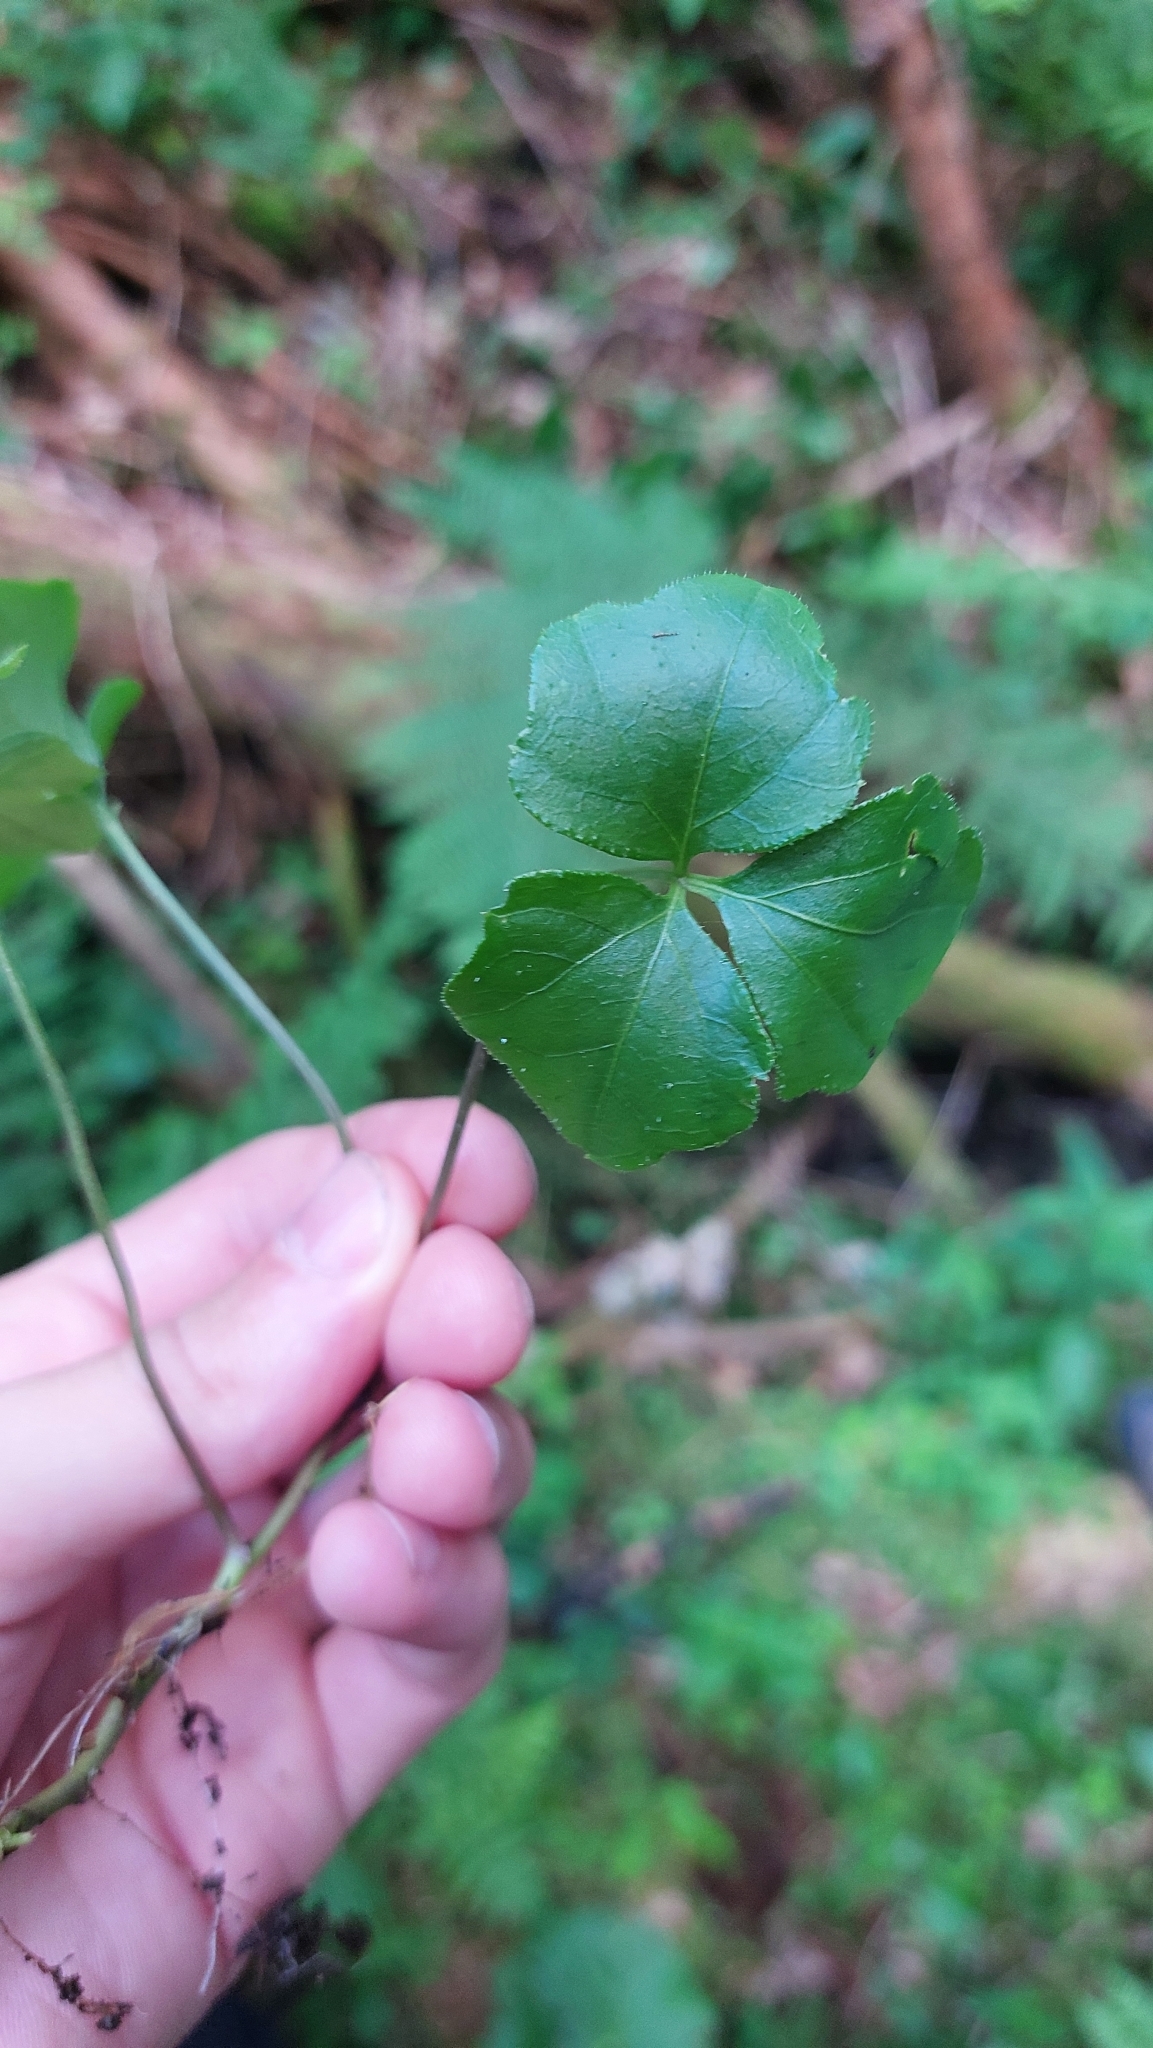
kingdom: Plantae
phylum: Tracheophyta
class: Magnoliopsida
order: Brassicales
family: Brassicaceae
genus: Cardamine
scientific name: Cardamine trifolia
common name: Trefoil cress
